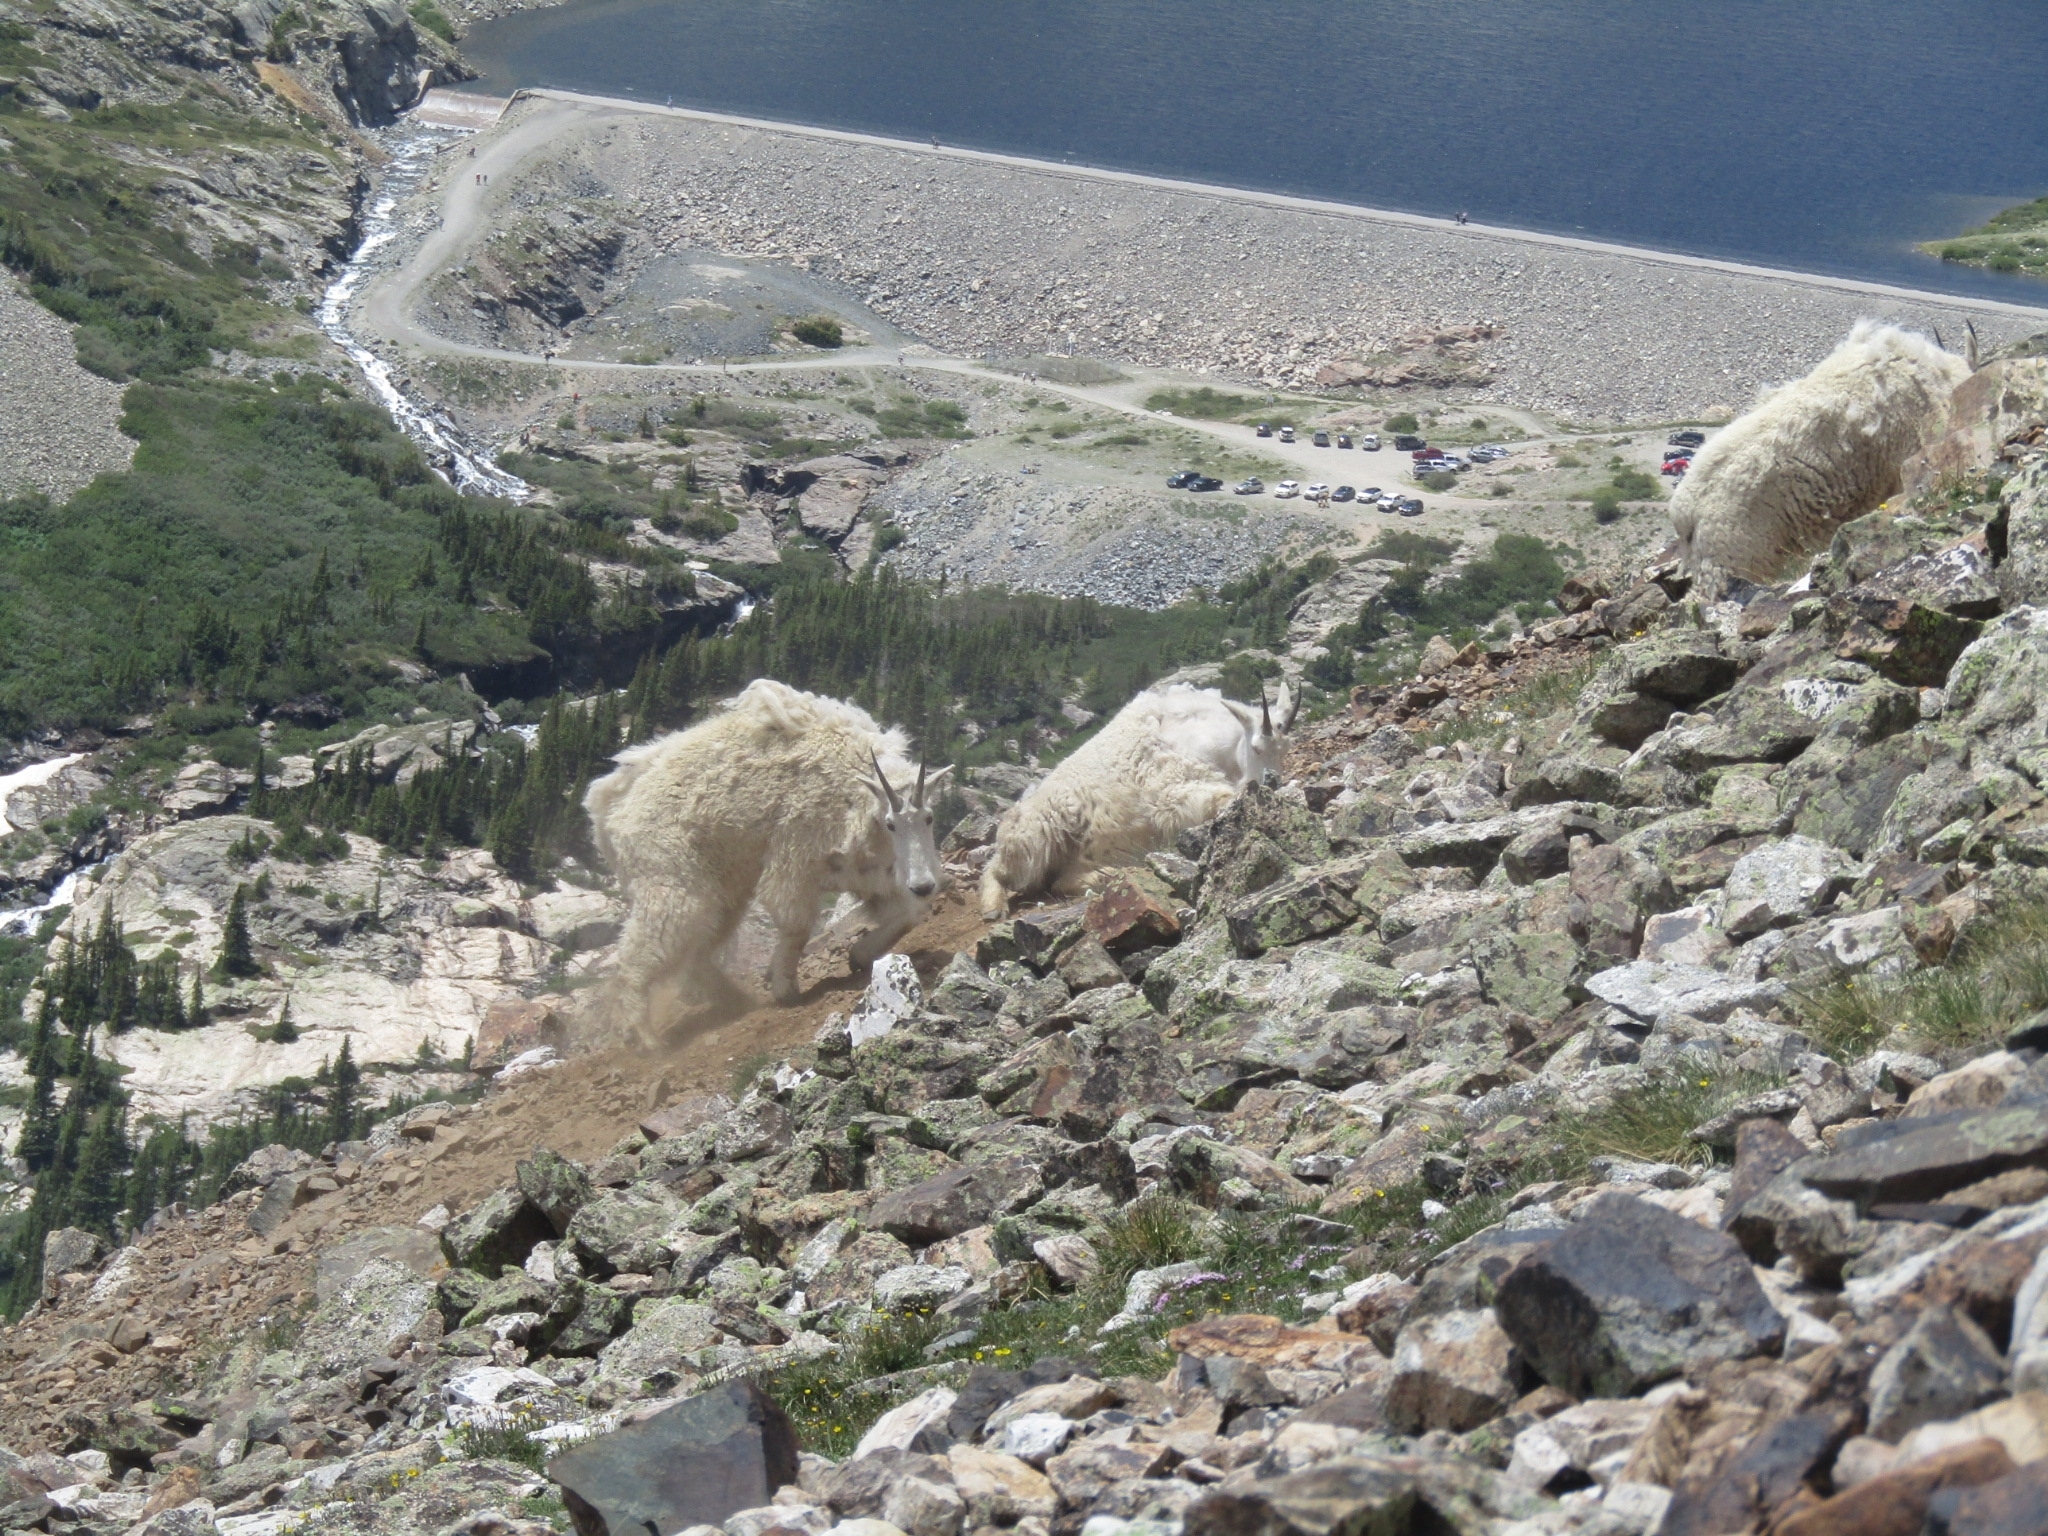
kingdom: Animalia
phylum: Chordata
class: Mammalia
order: Artiodactyla
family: Bovidae
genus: Oreamnos
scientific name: Oreamnos americanus
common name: Mountain goat
